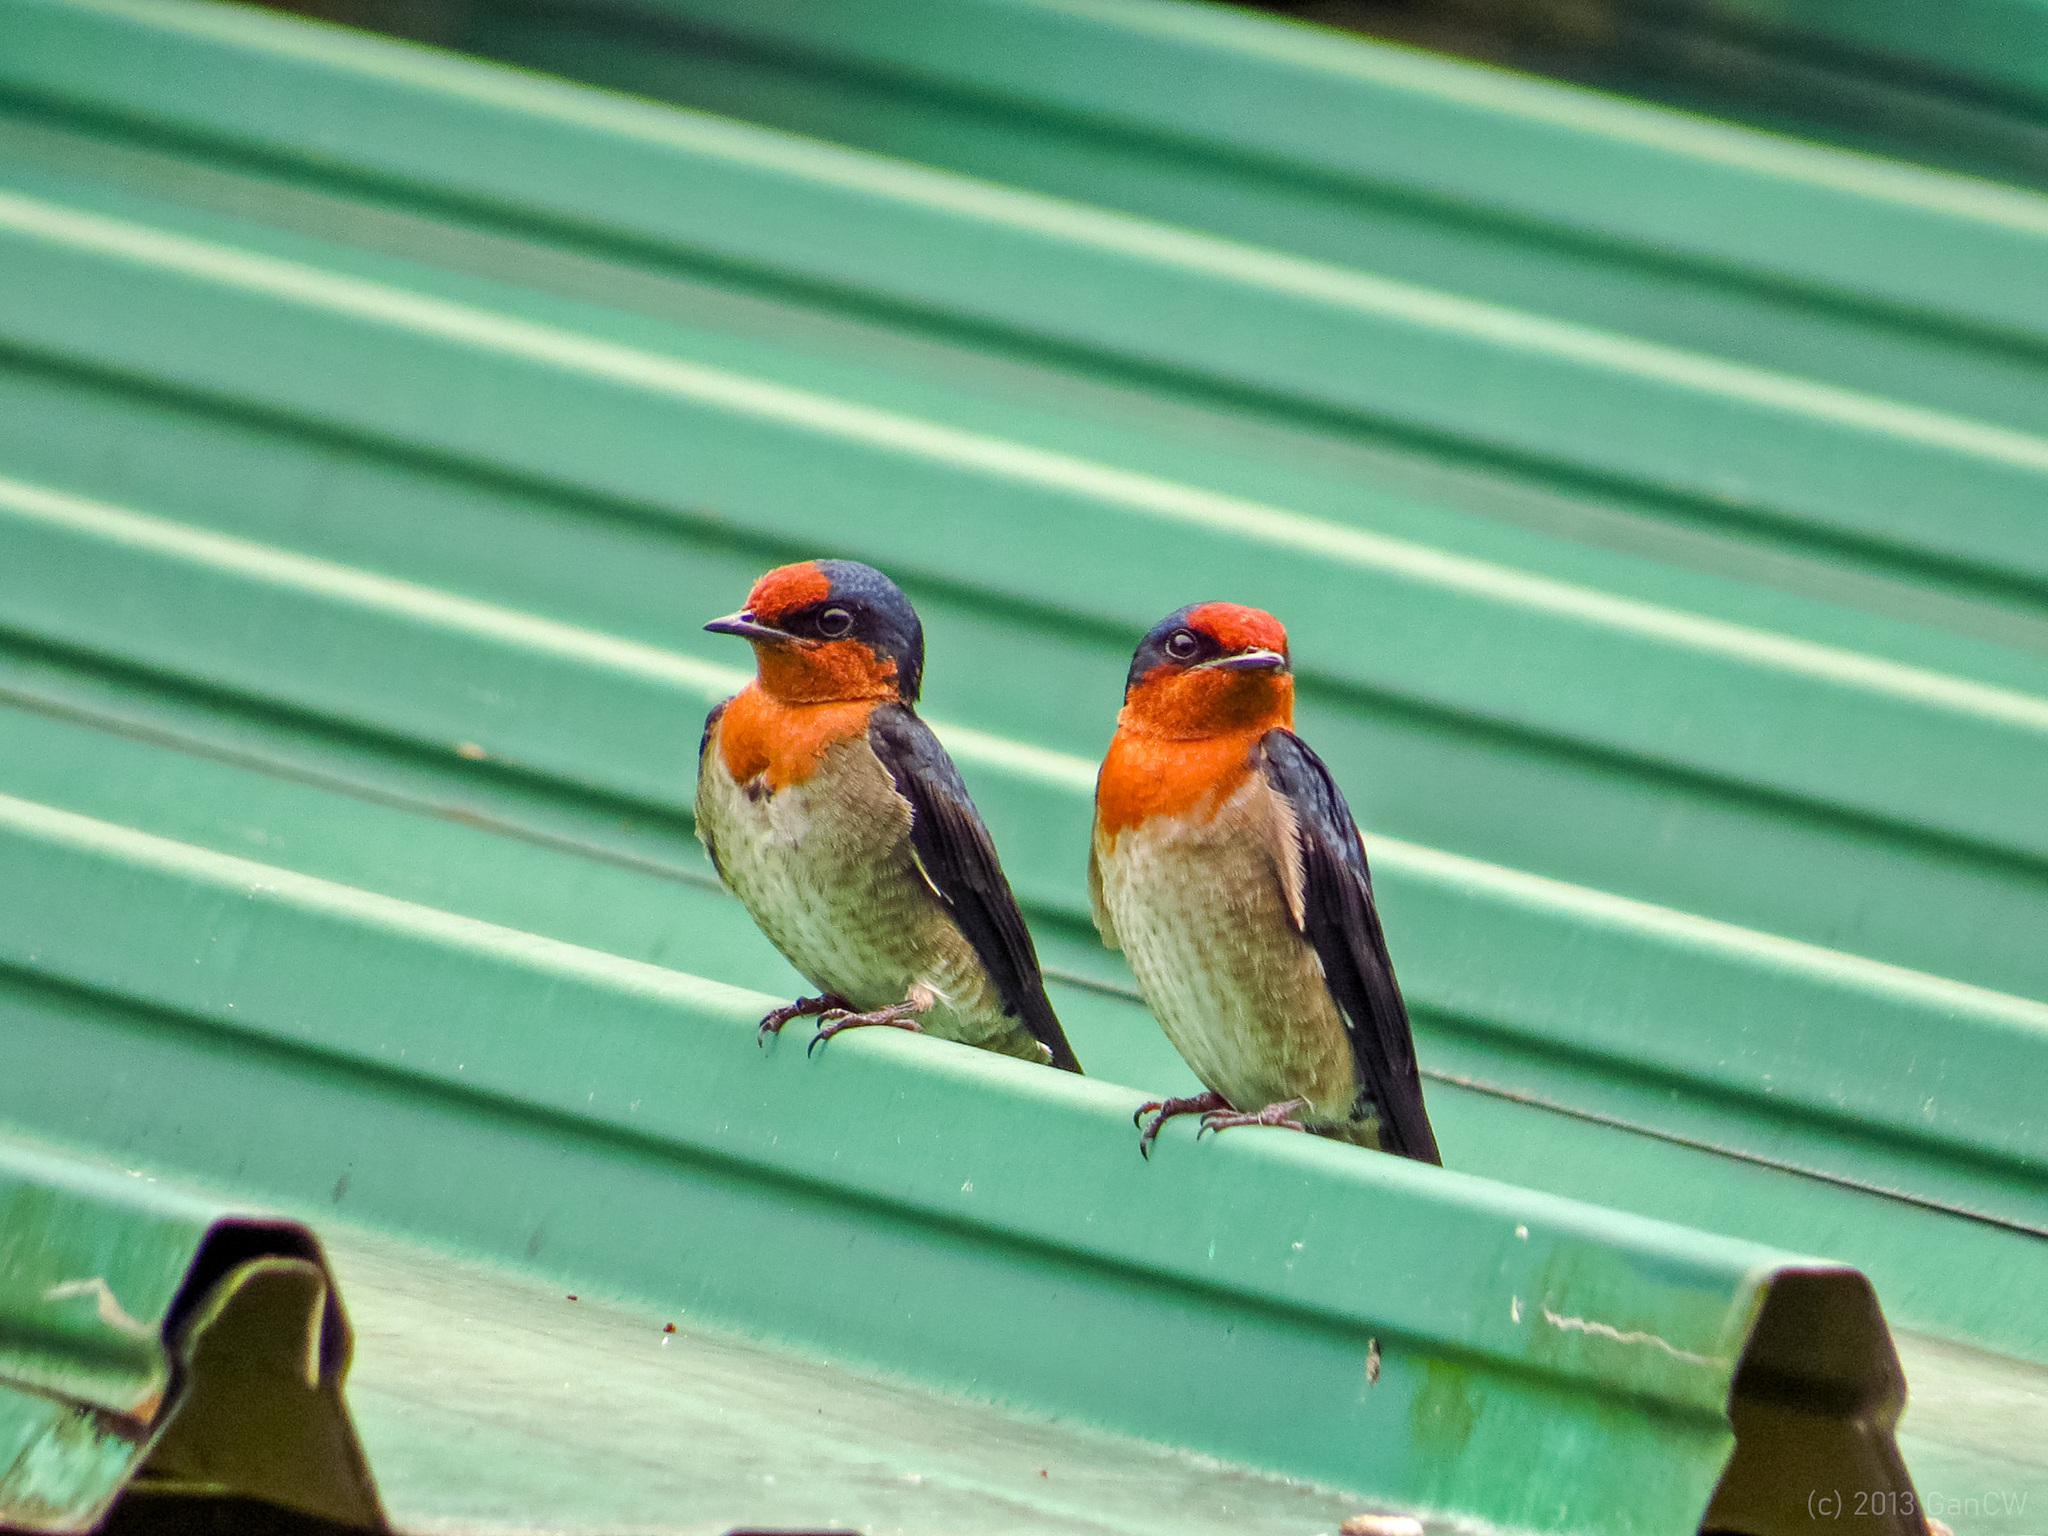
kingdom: Animalia
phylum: Chordata
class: Aves
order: Passeriformes
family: Hirundinidae
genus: Hirundo
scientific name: Hirundo tahitica
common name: Pacific swallow
